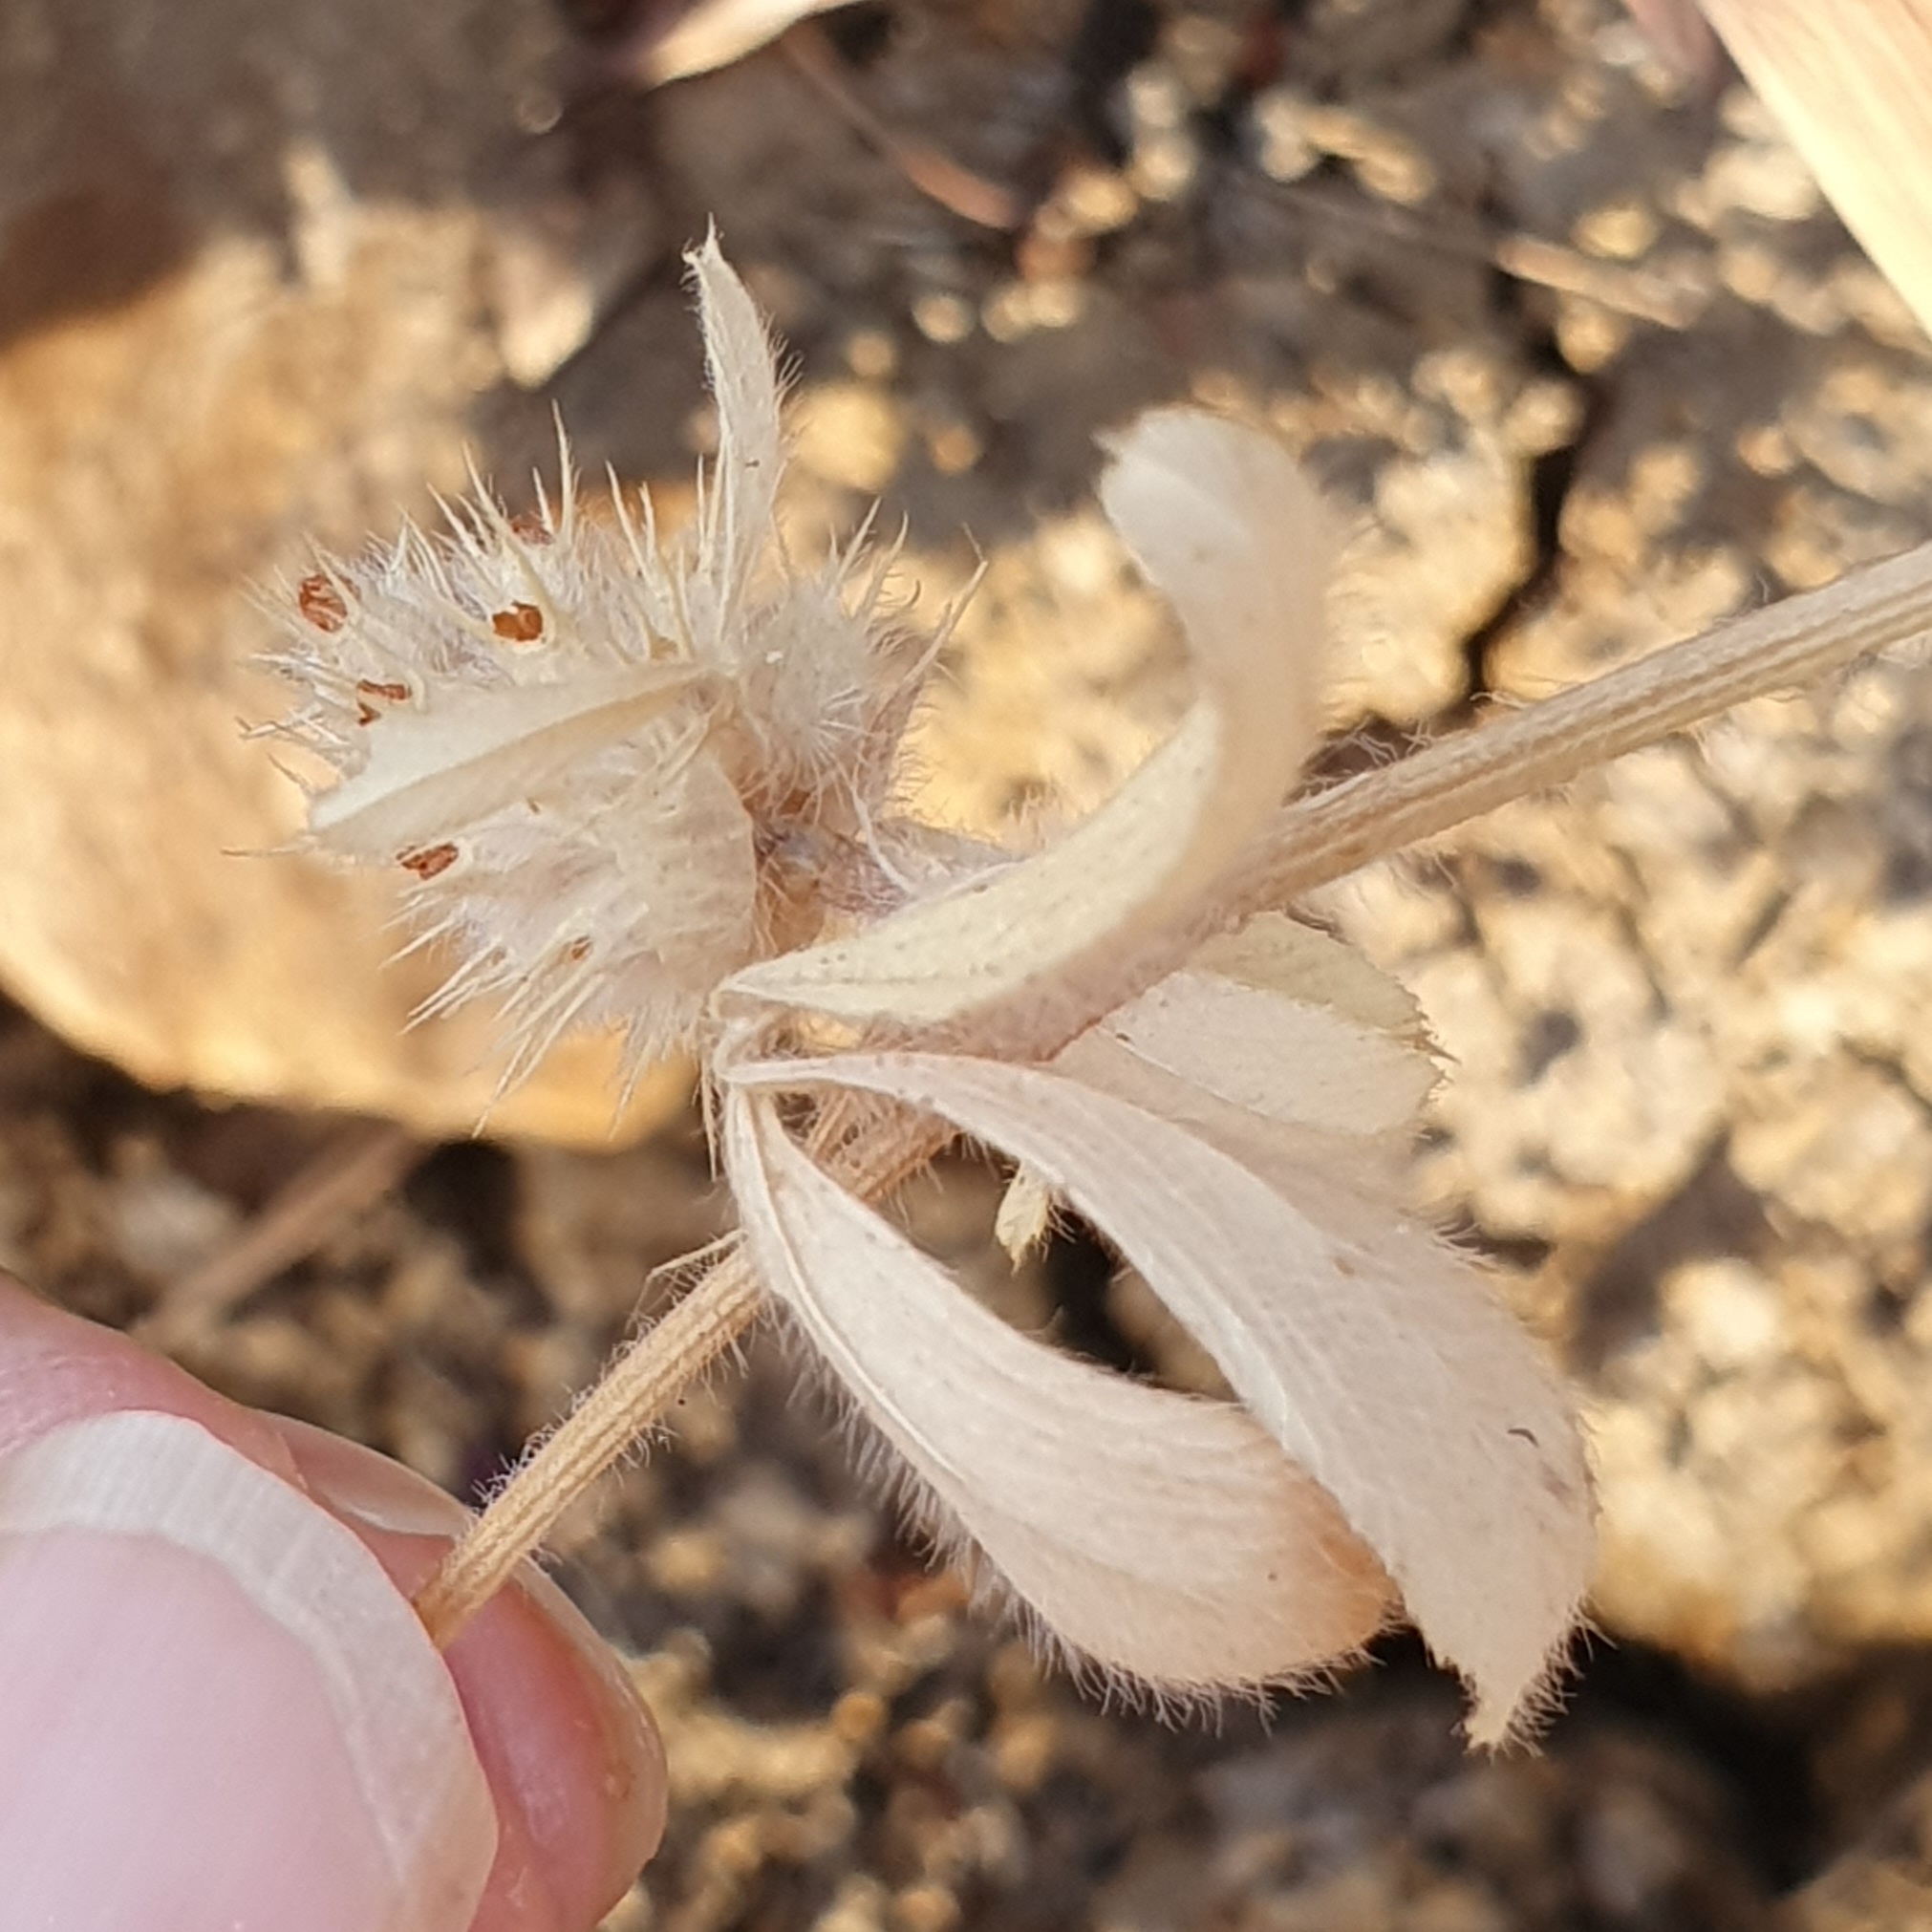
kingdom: Plantae
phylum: Tracheophyta
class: Magnoliopsida
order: Fabales
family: Fabaceae
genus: Trifolium
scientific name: Trifolium striatum
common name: Knotted clover
